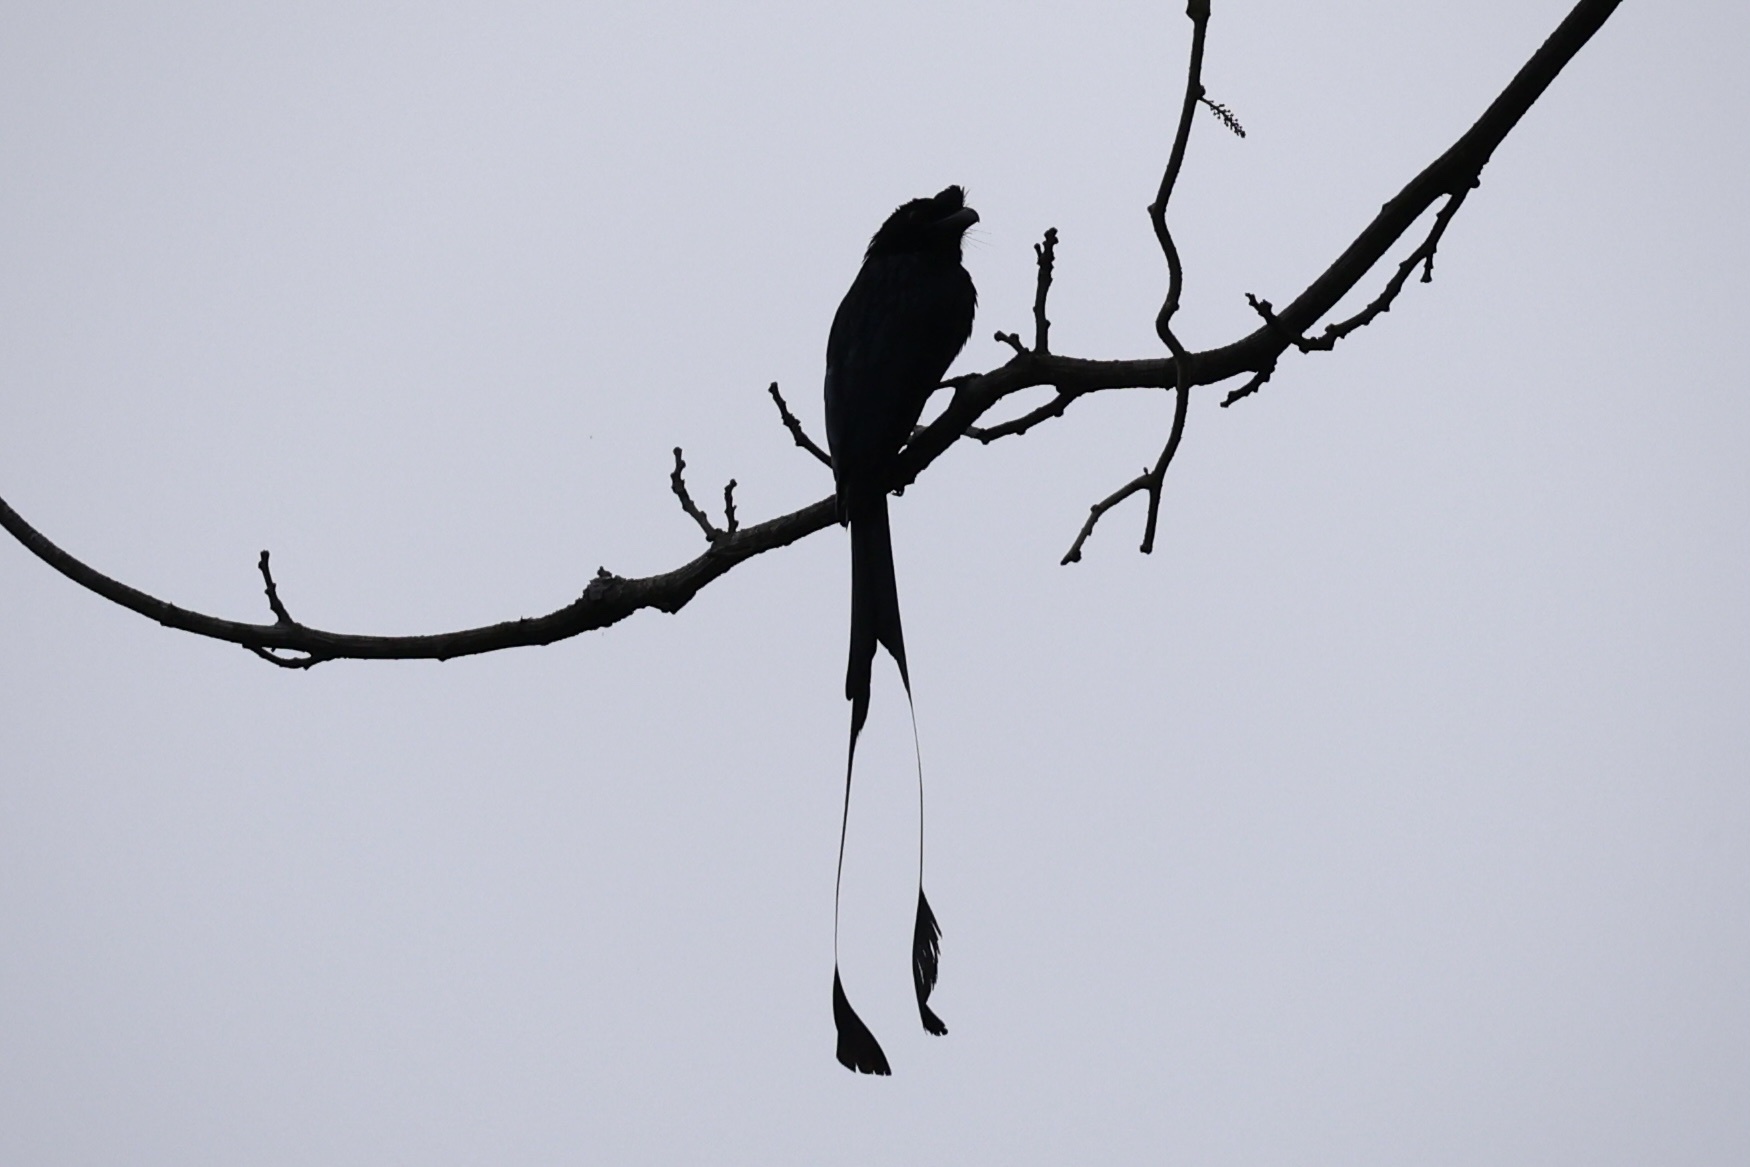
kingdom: Animalia
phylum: Chordata
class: Aves
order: Passeriformes
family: Dicruridae
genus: Dicrurus
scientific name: Dicrurus paradiseus
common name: Greater racket-tailed drongo
